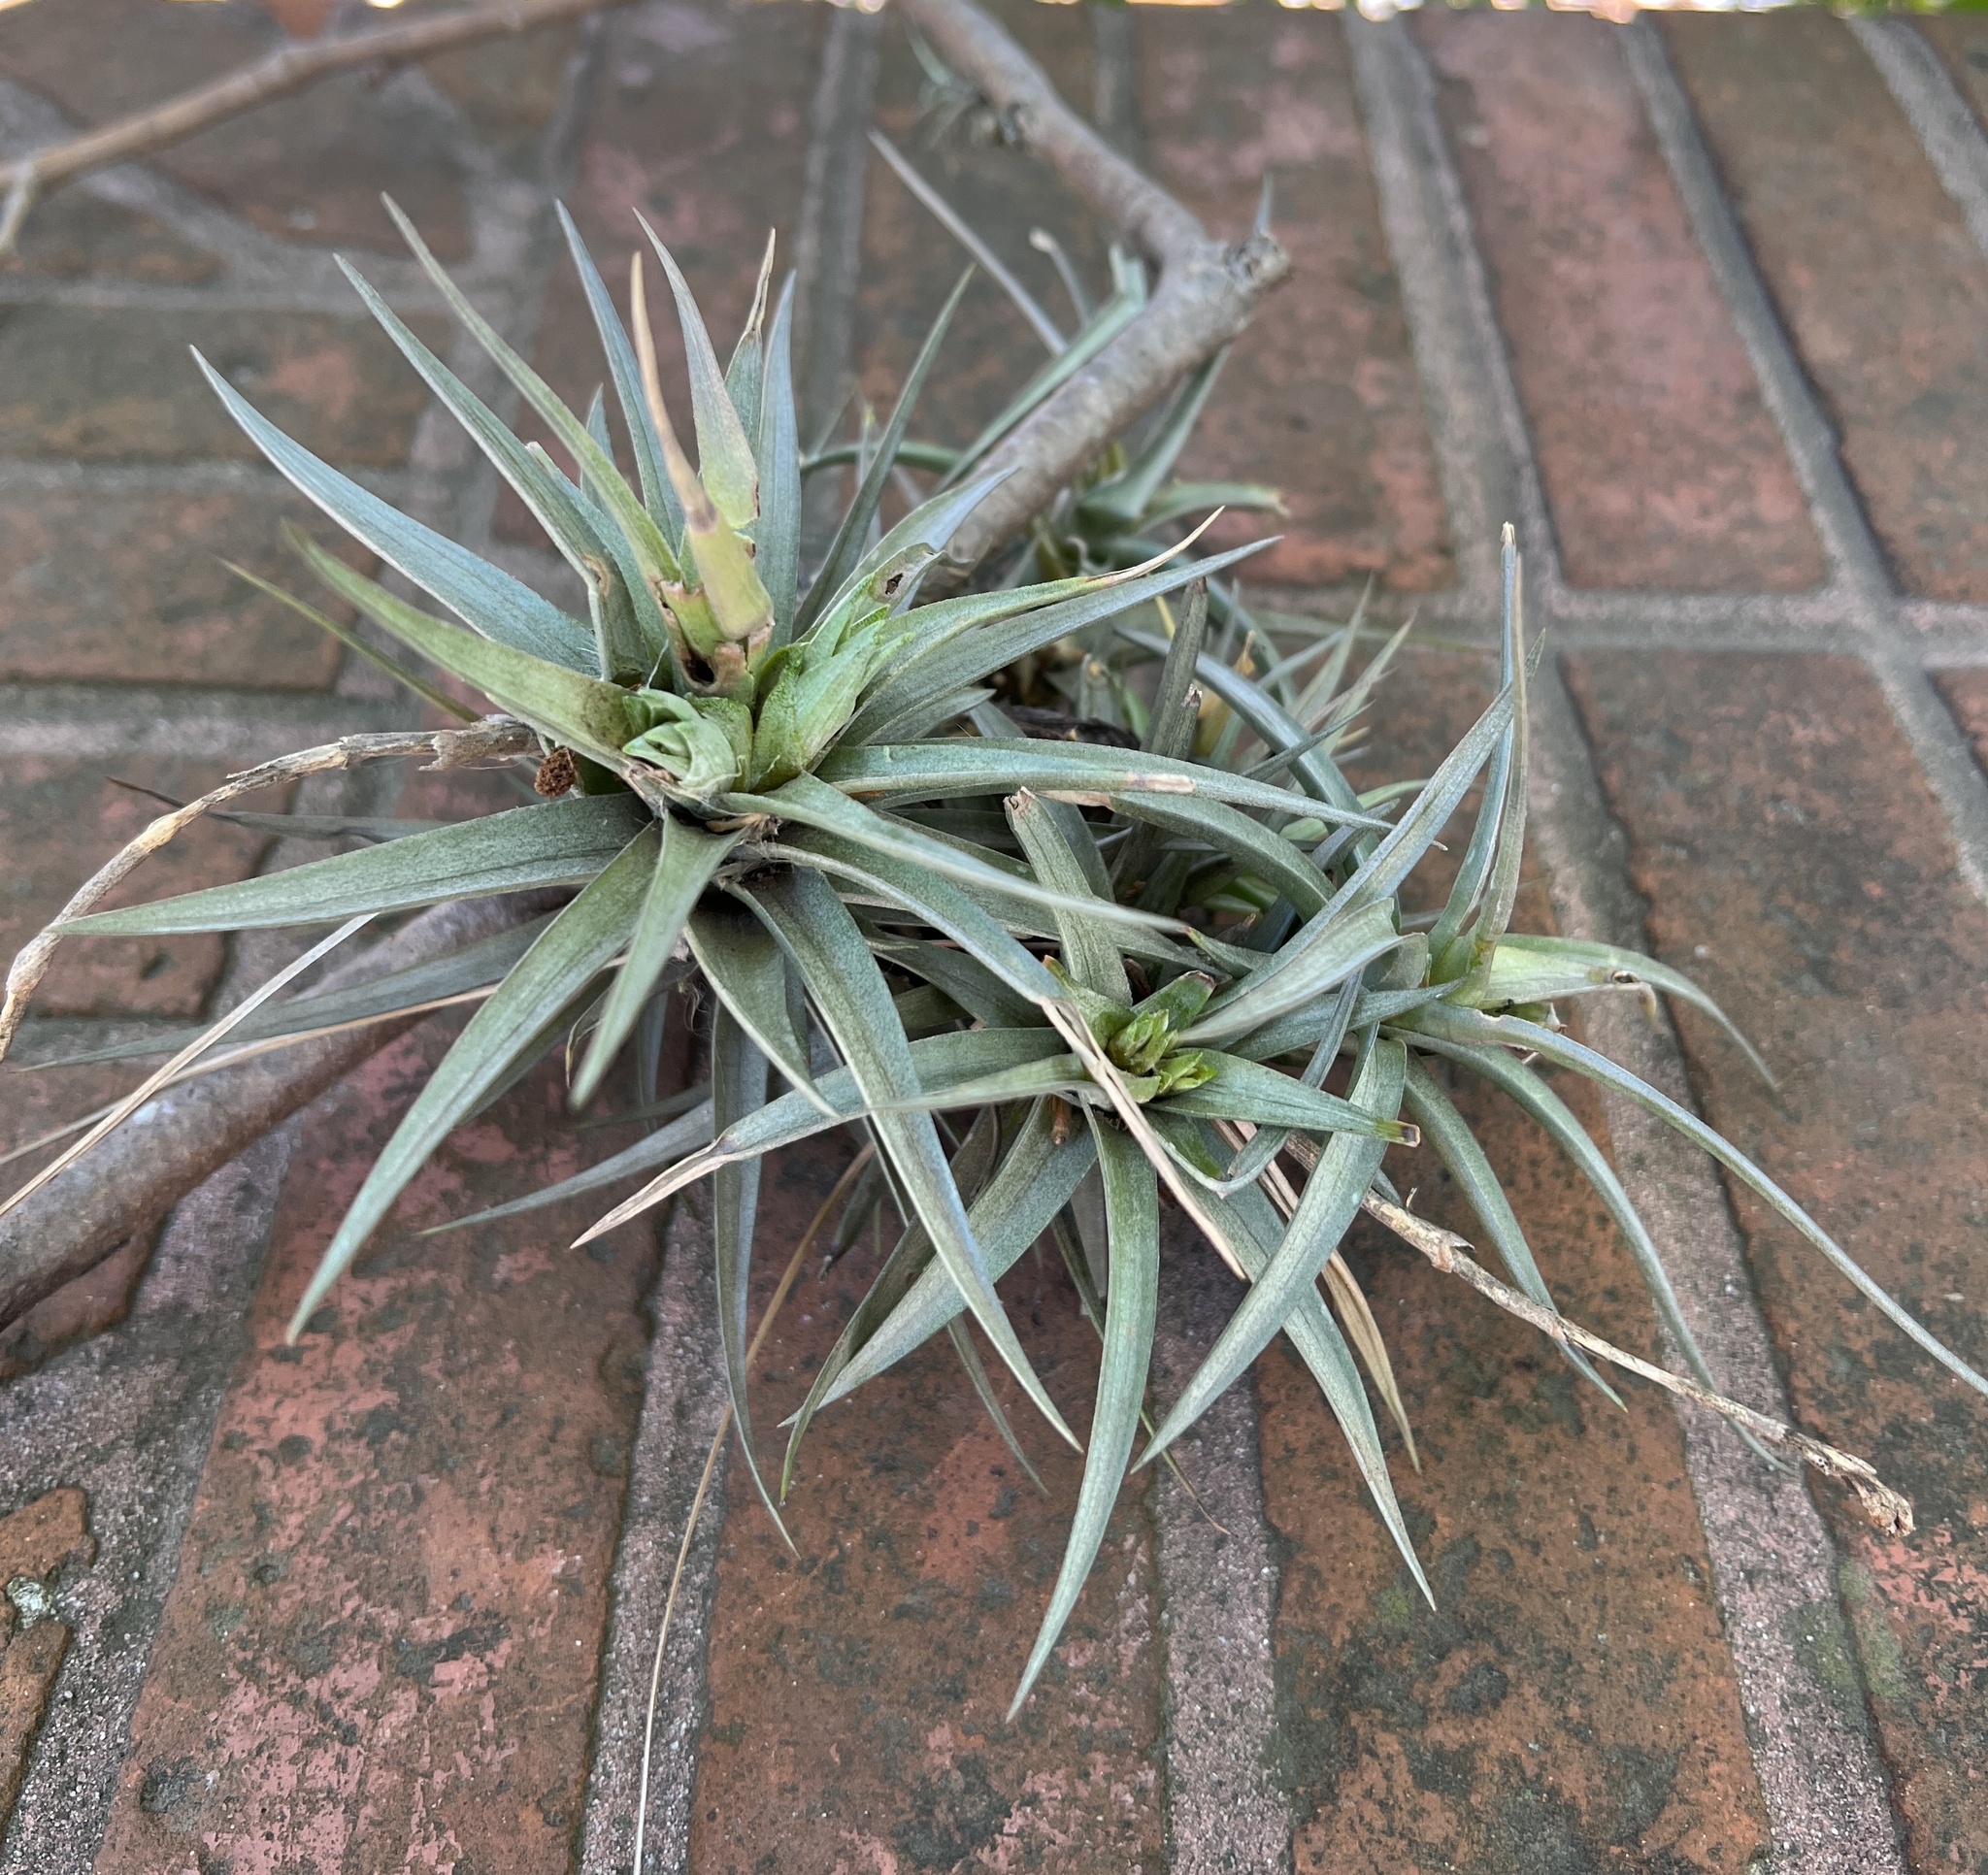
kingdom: Plantae
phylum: Tracheophyta
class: Liliopsida
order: Poales
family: Bromeliaceae
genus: Tillandsia
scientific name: Tillandsia aeranthos
